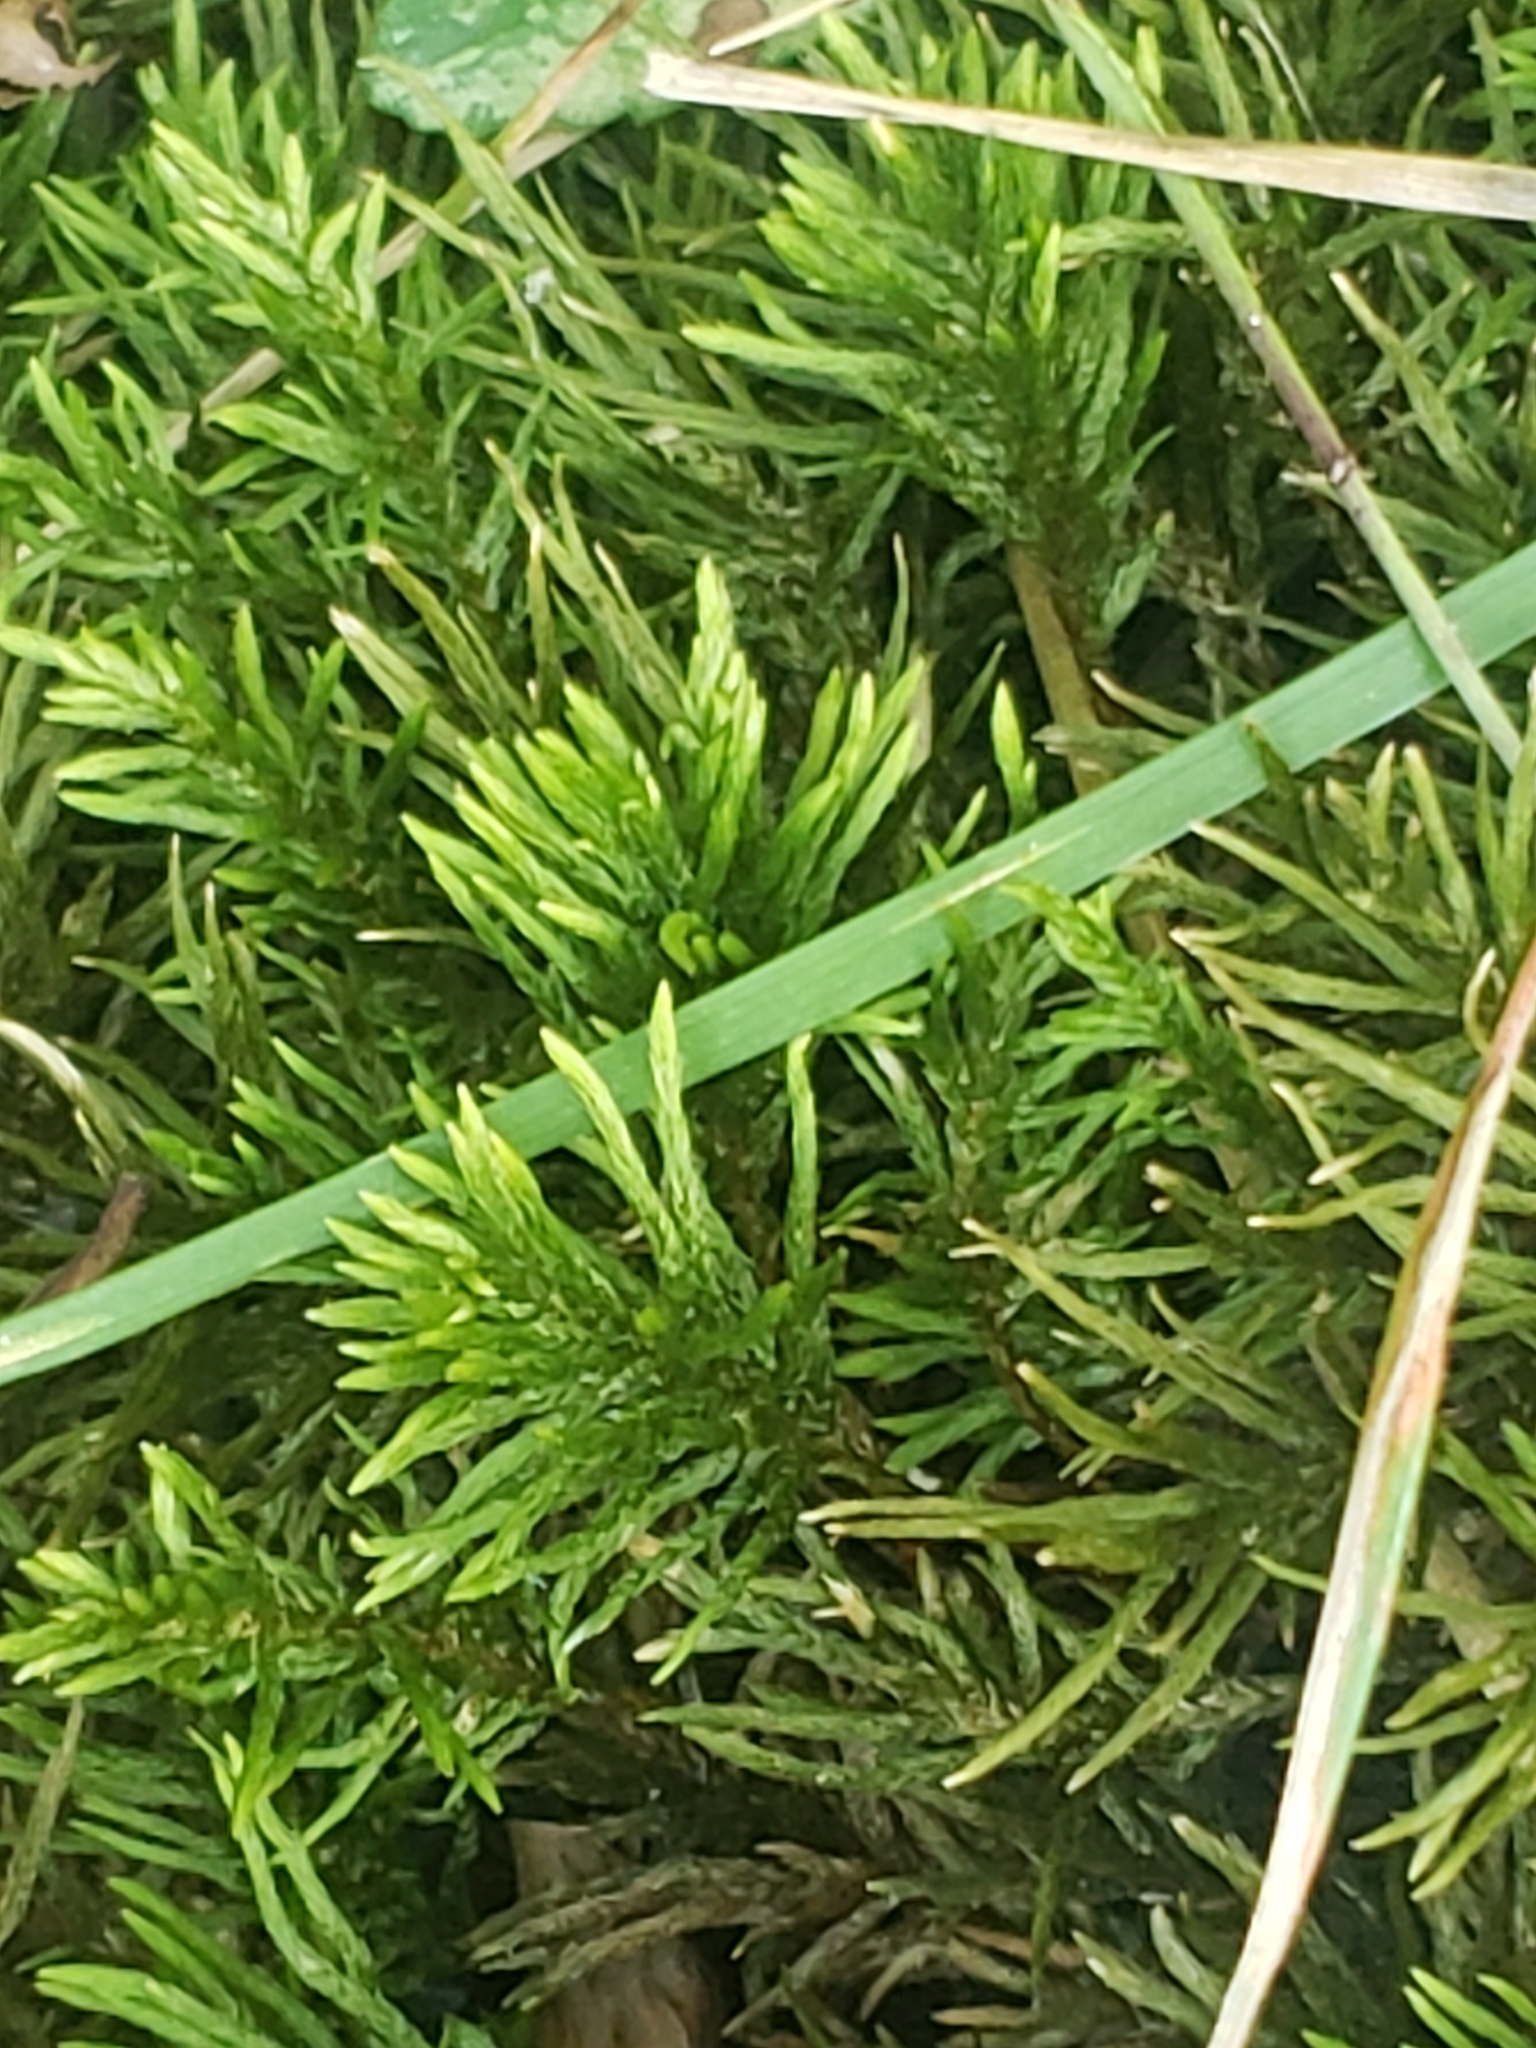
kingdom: Plantae
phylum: Bryophyta
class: Bryopsida
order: Hypnales
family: Climaciaceae
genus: Climacium
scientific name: Climacium americanum
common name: American tree moss
